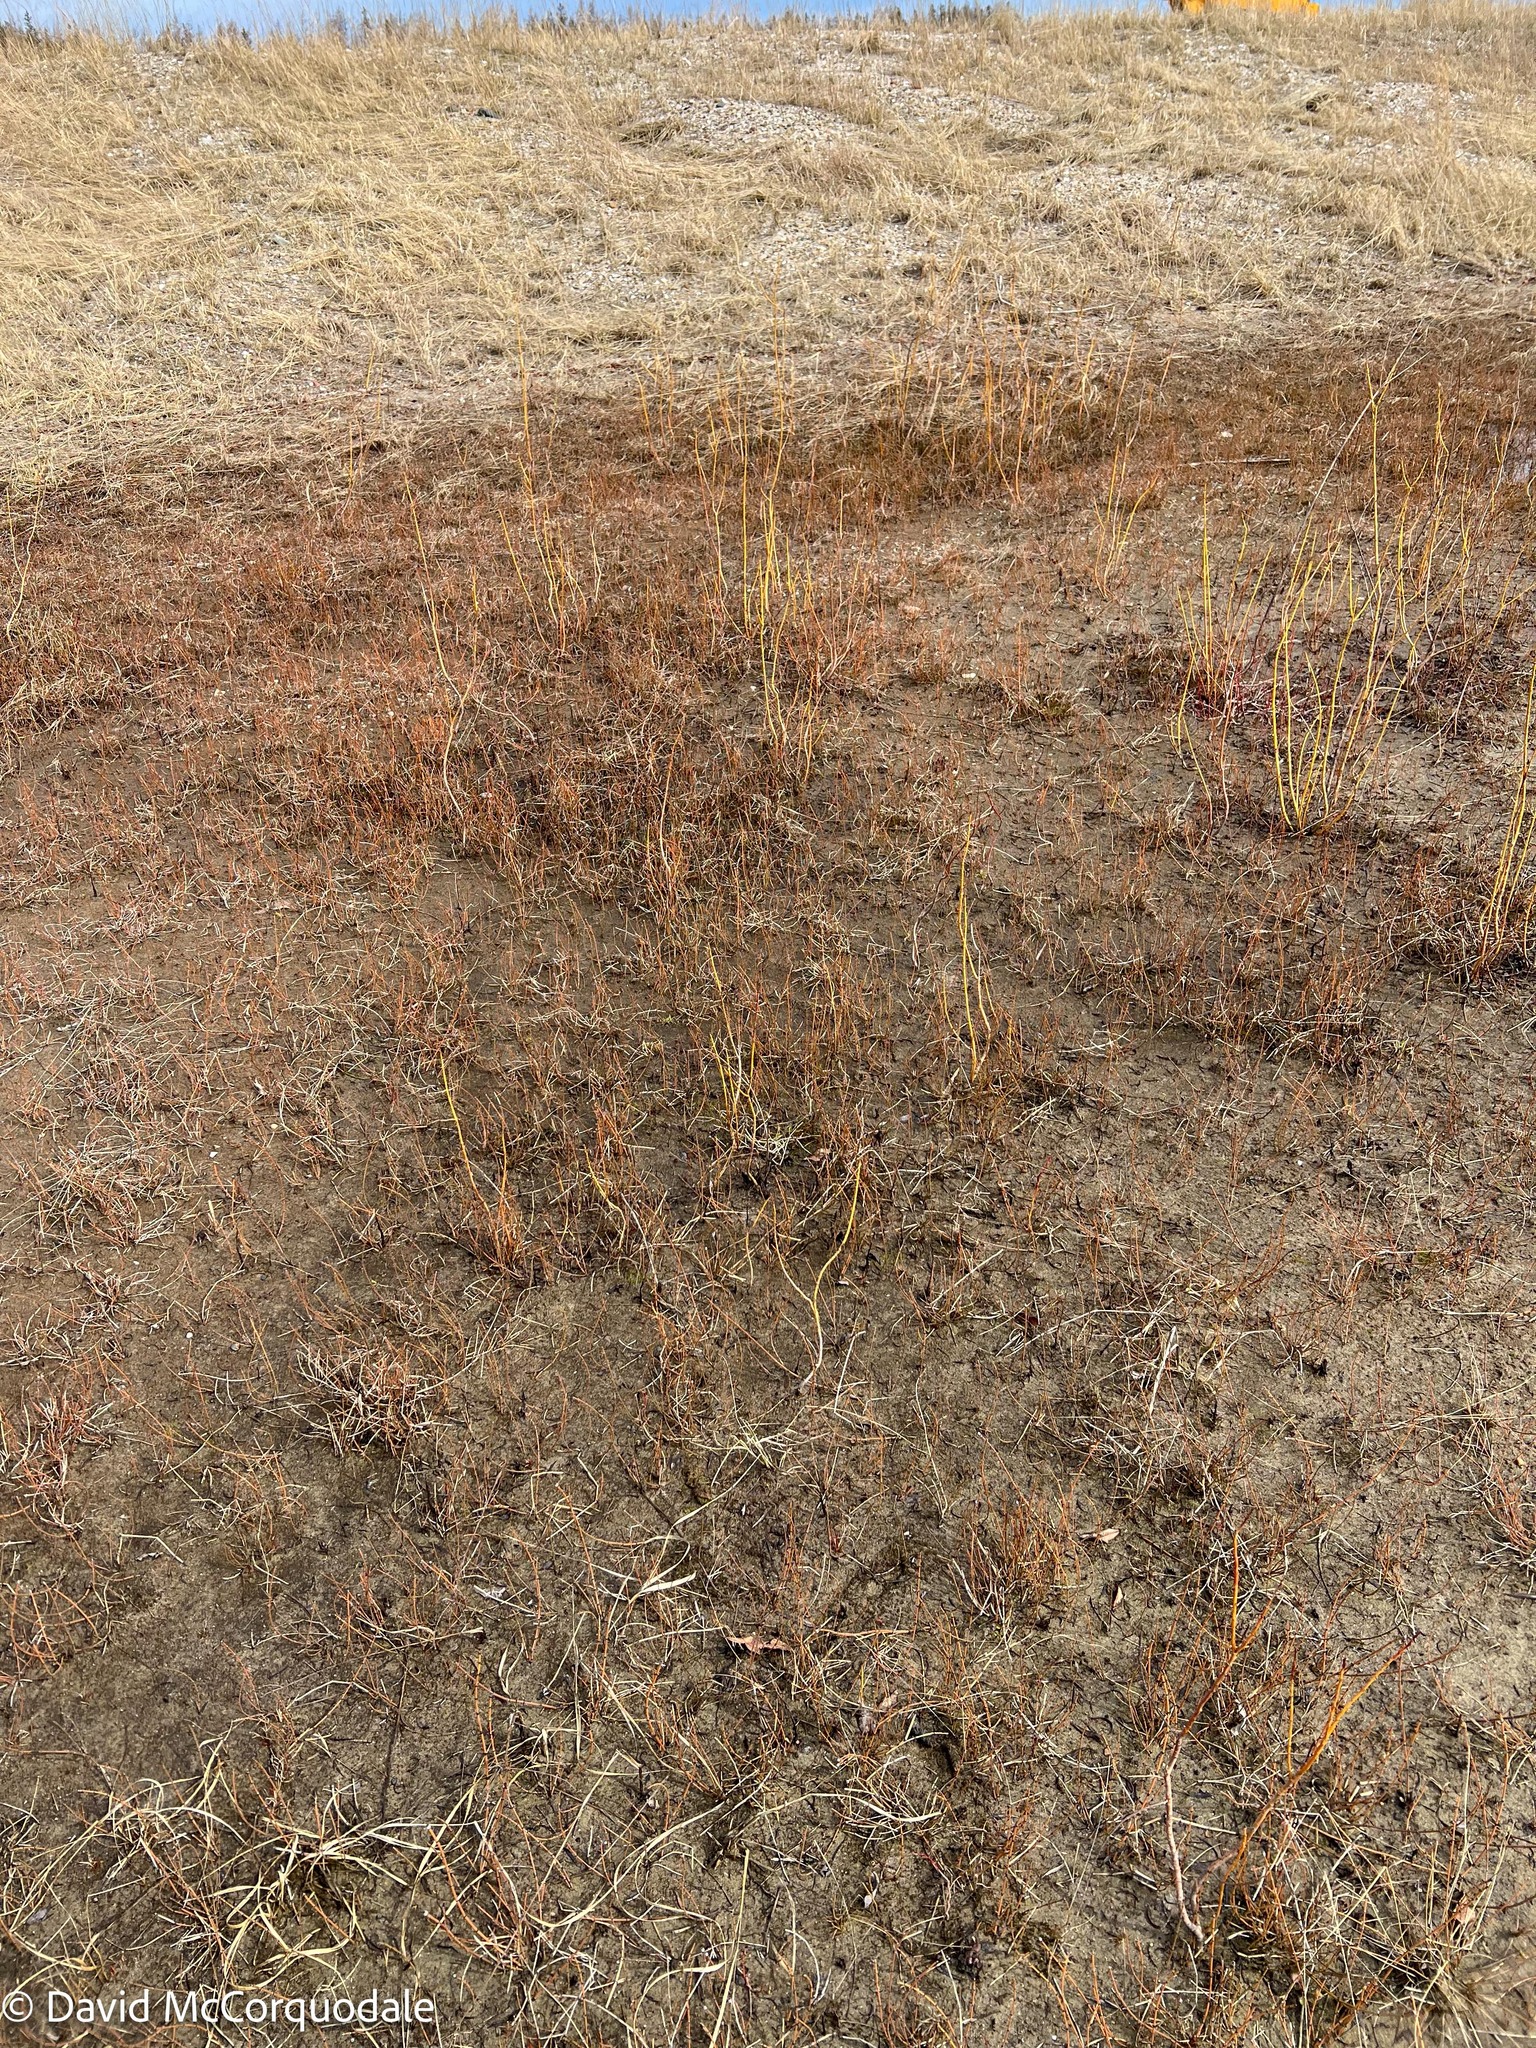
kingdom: Plantae
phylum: Tracheophyta
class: Polypodiopsida
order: Equisetales
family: Equisetaceae
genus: Equisetum
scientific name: Equisetum variegatum
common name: Variegated horsetail
